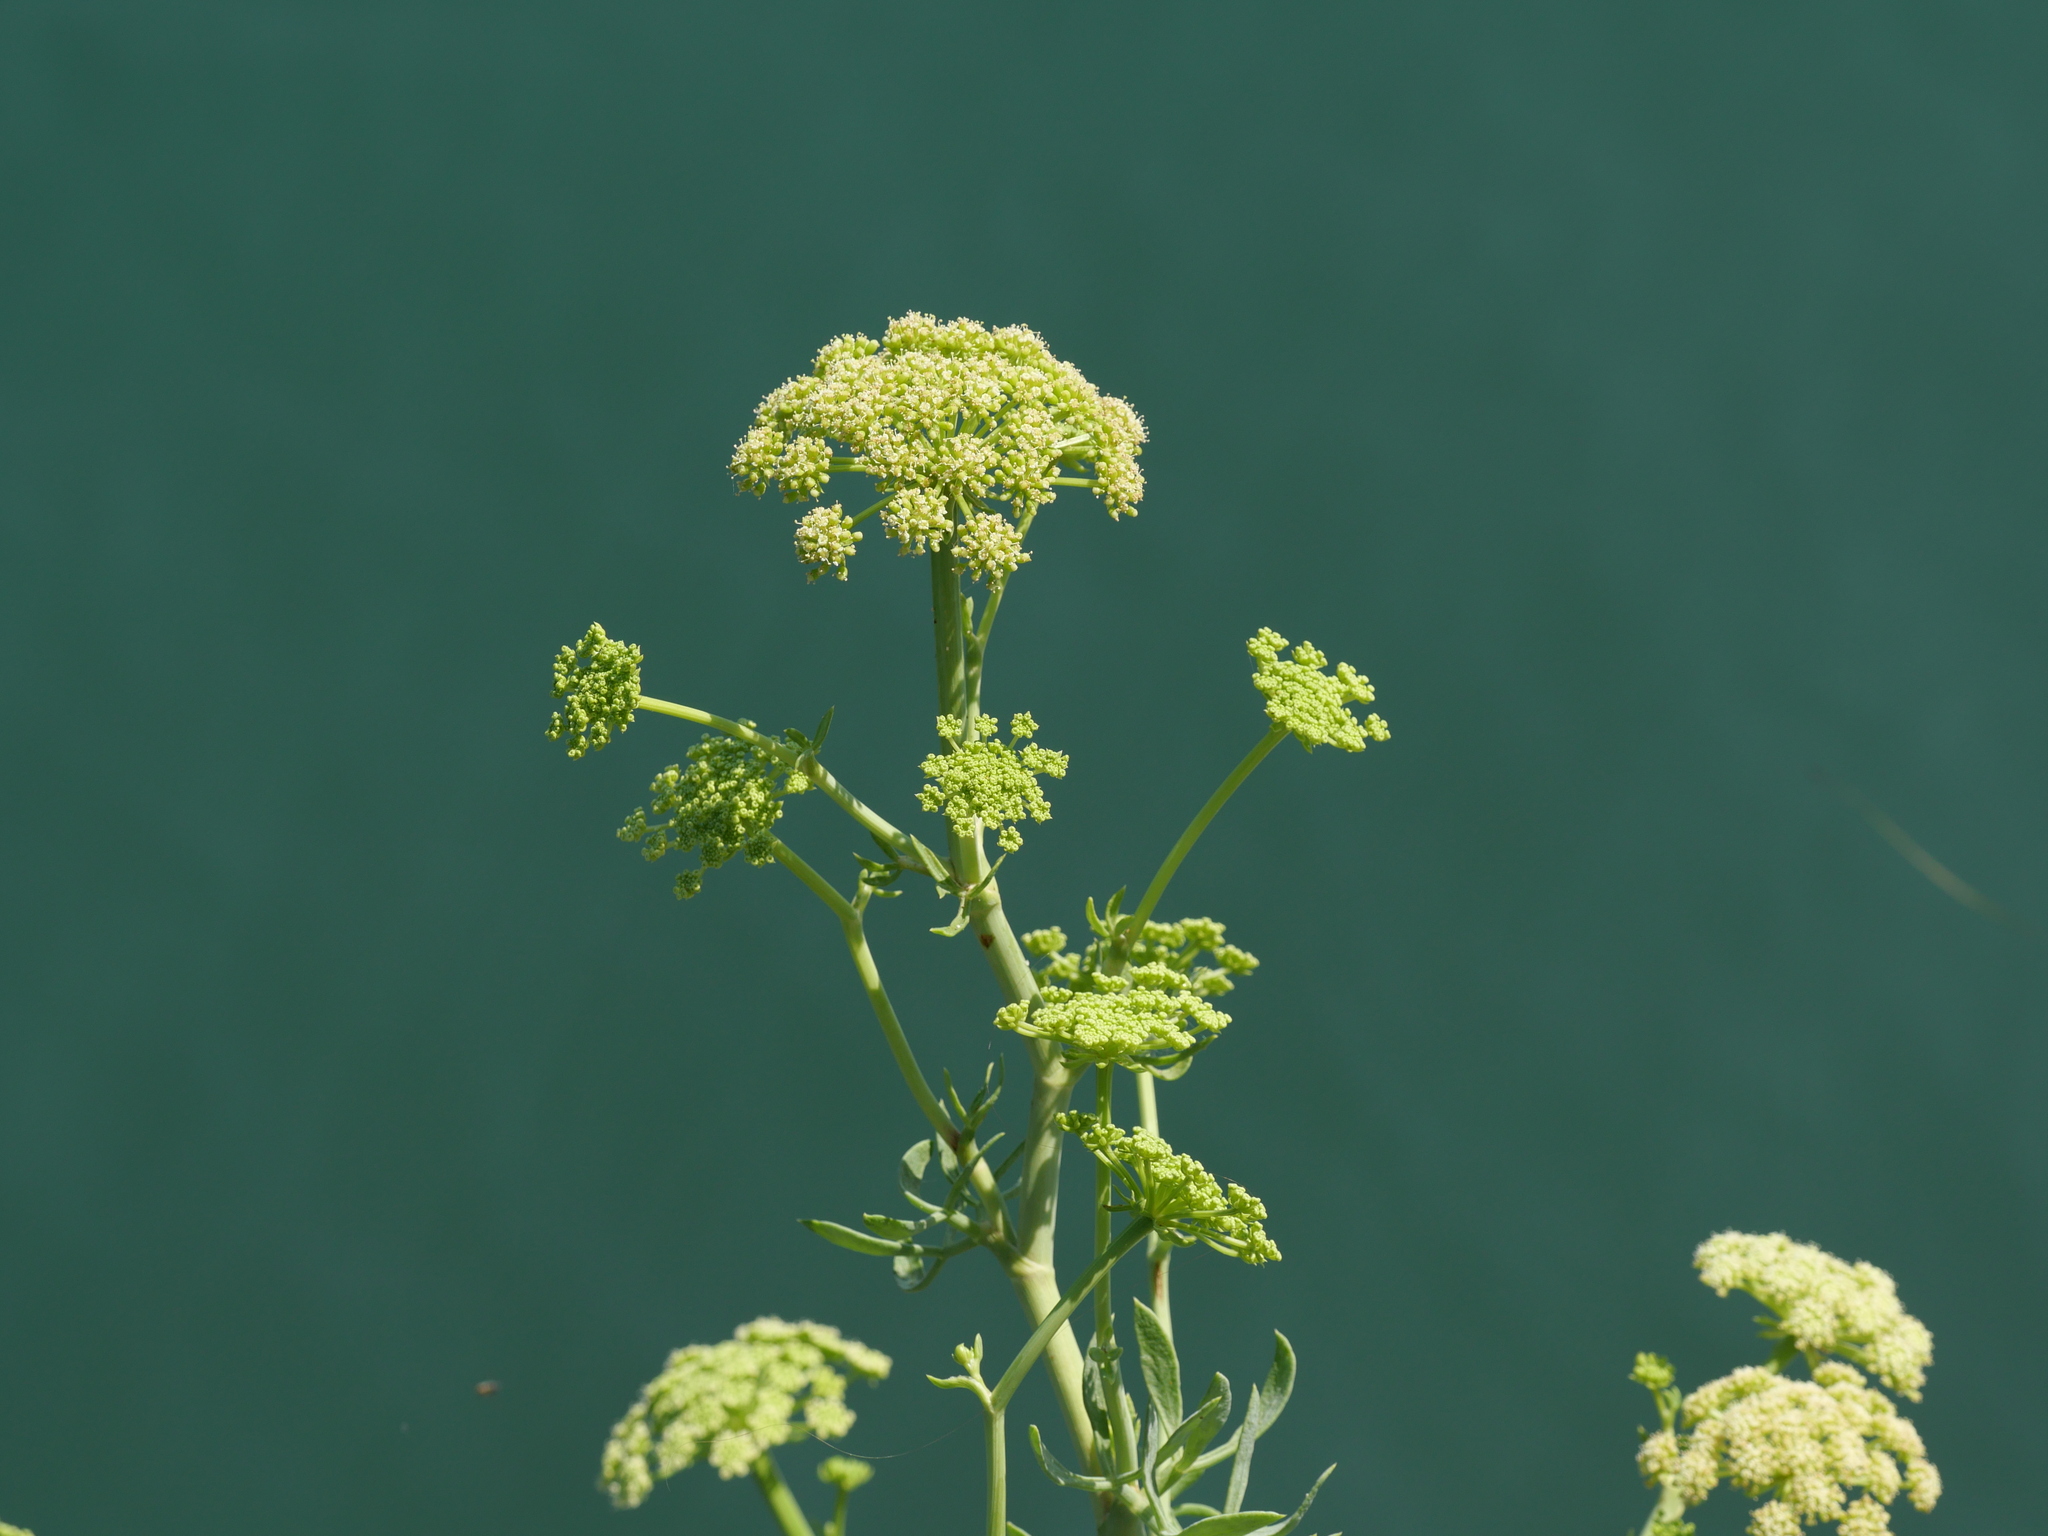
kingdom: Plantae
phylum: Tracheophyta
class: Magnoliopsida
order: Apiales
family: Apiaceae
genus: Crithmum
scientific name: Crithmum maritimum
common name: Rock samphire
